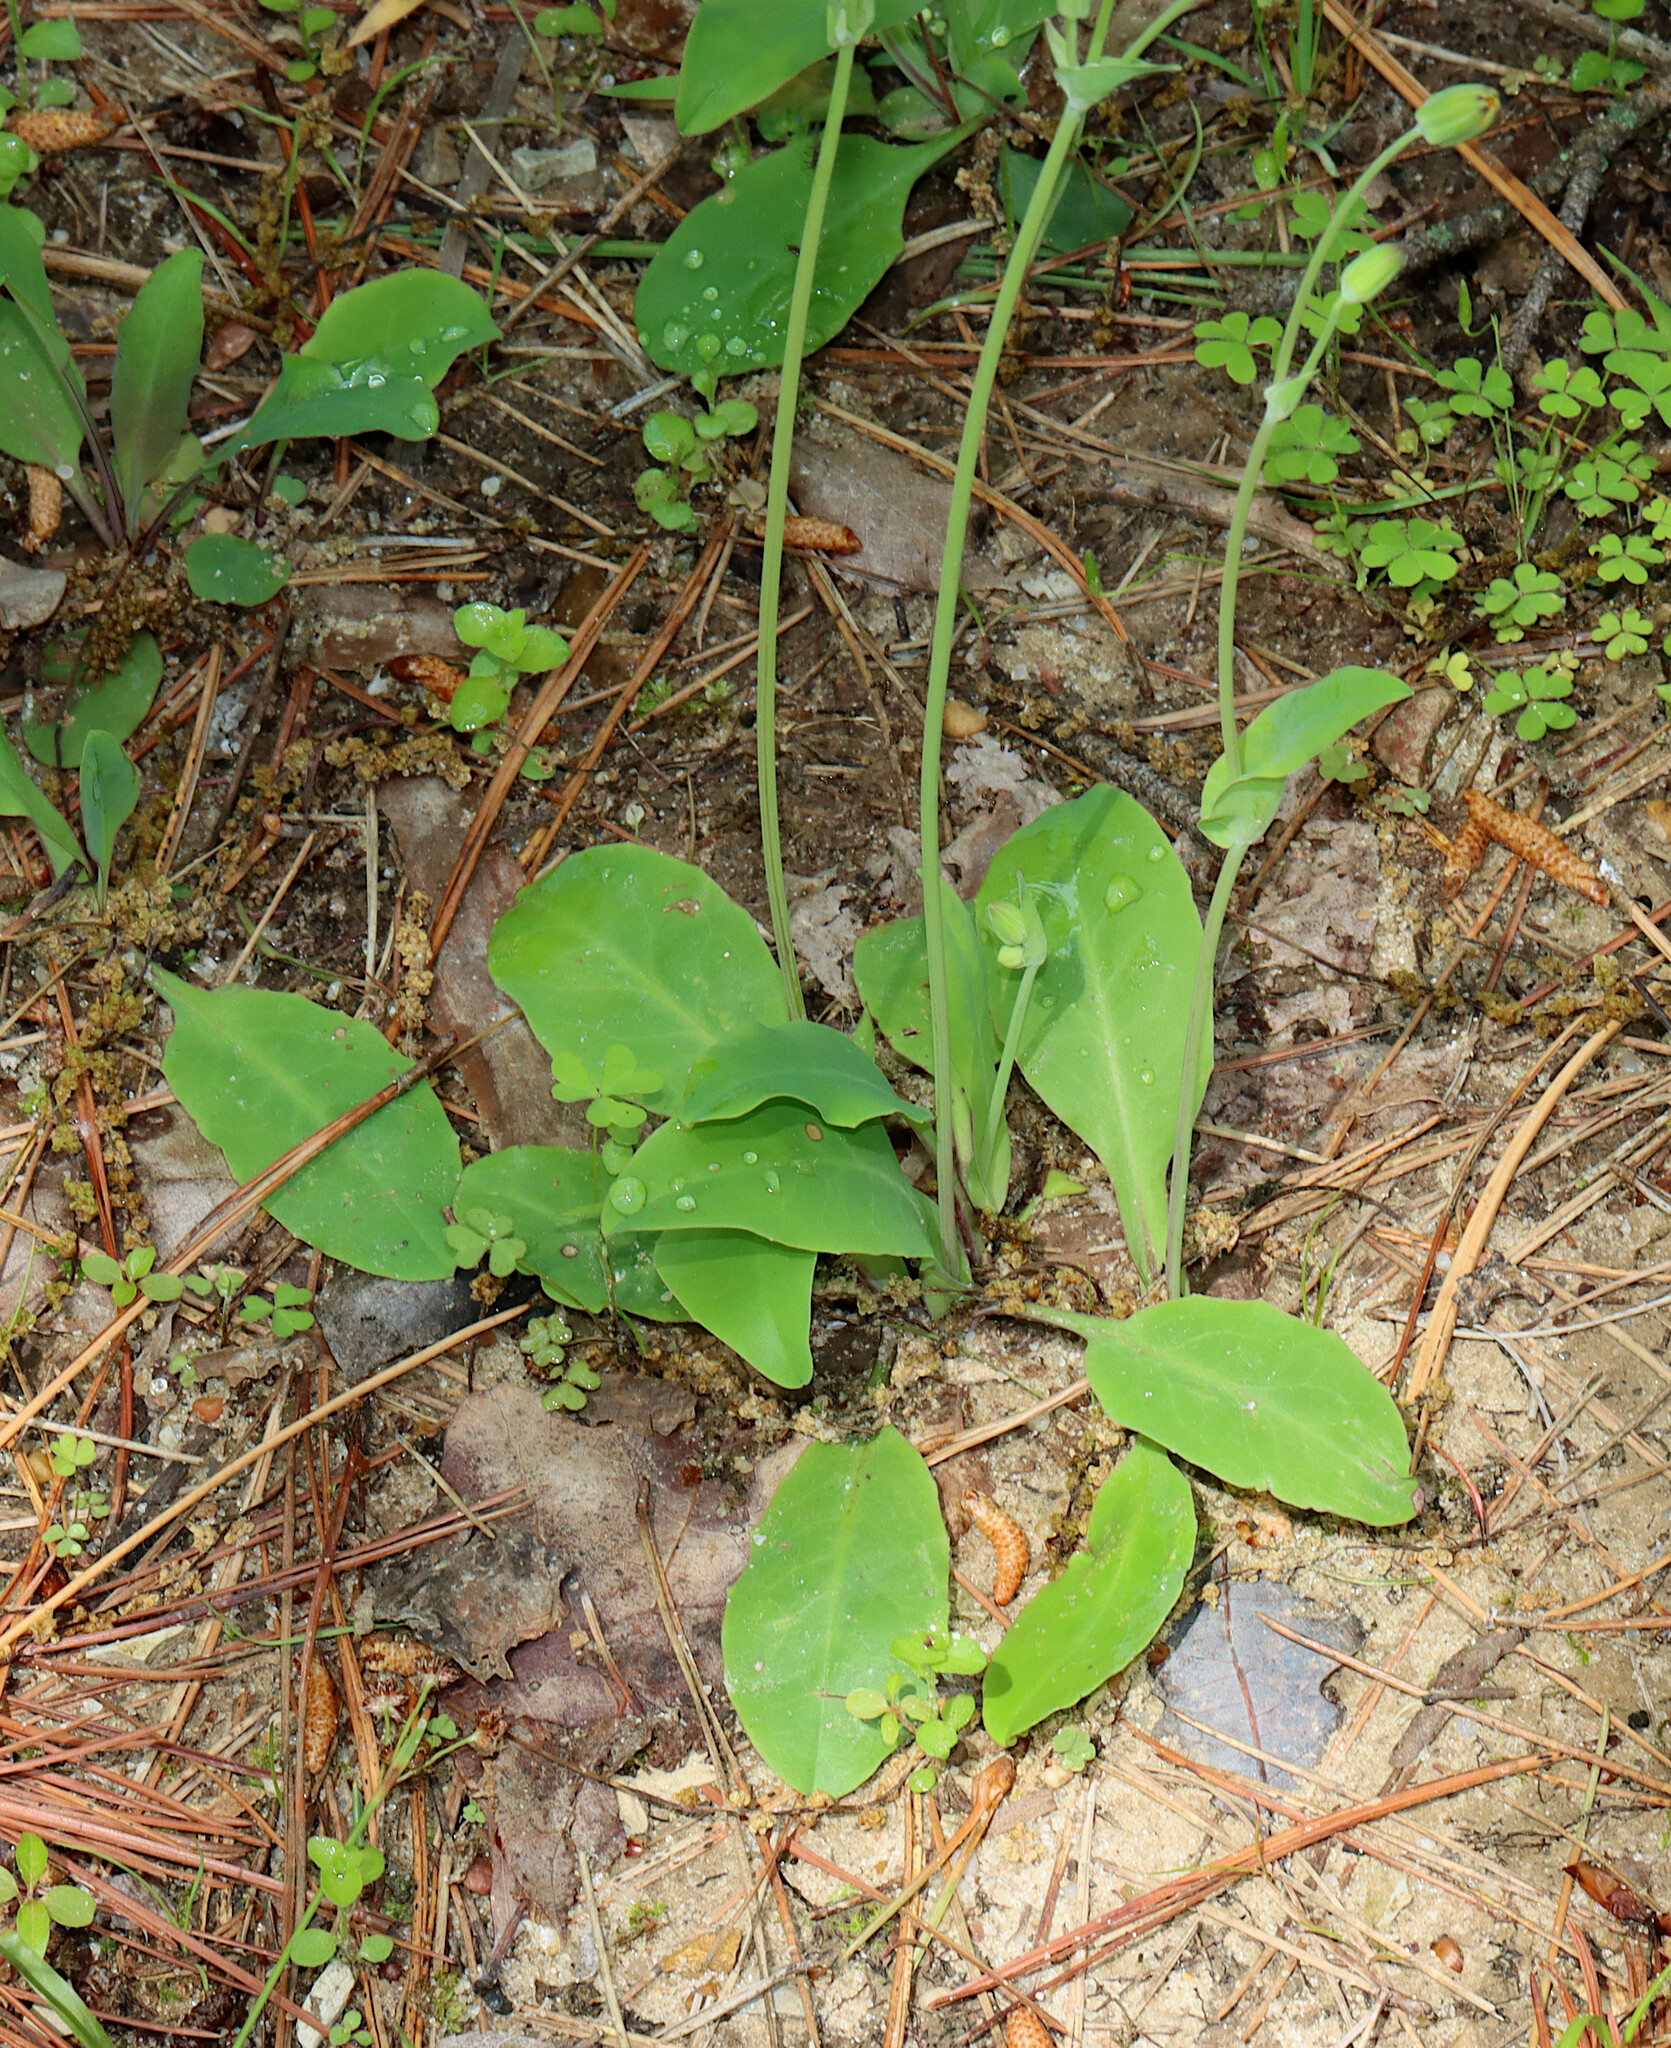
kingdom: Plantae
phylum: Tracheophyta
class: Magnoliopsida
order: Asterales
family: Asteraceae
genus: Krigia
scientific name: Krigia biflora
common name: Orange dwarf-dandelion
